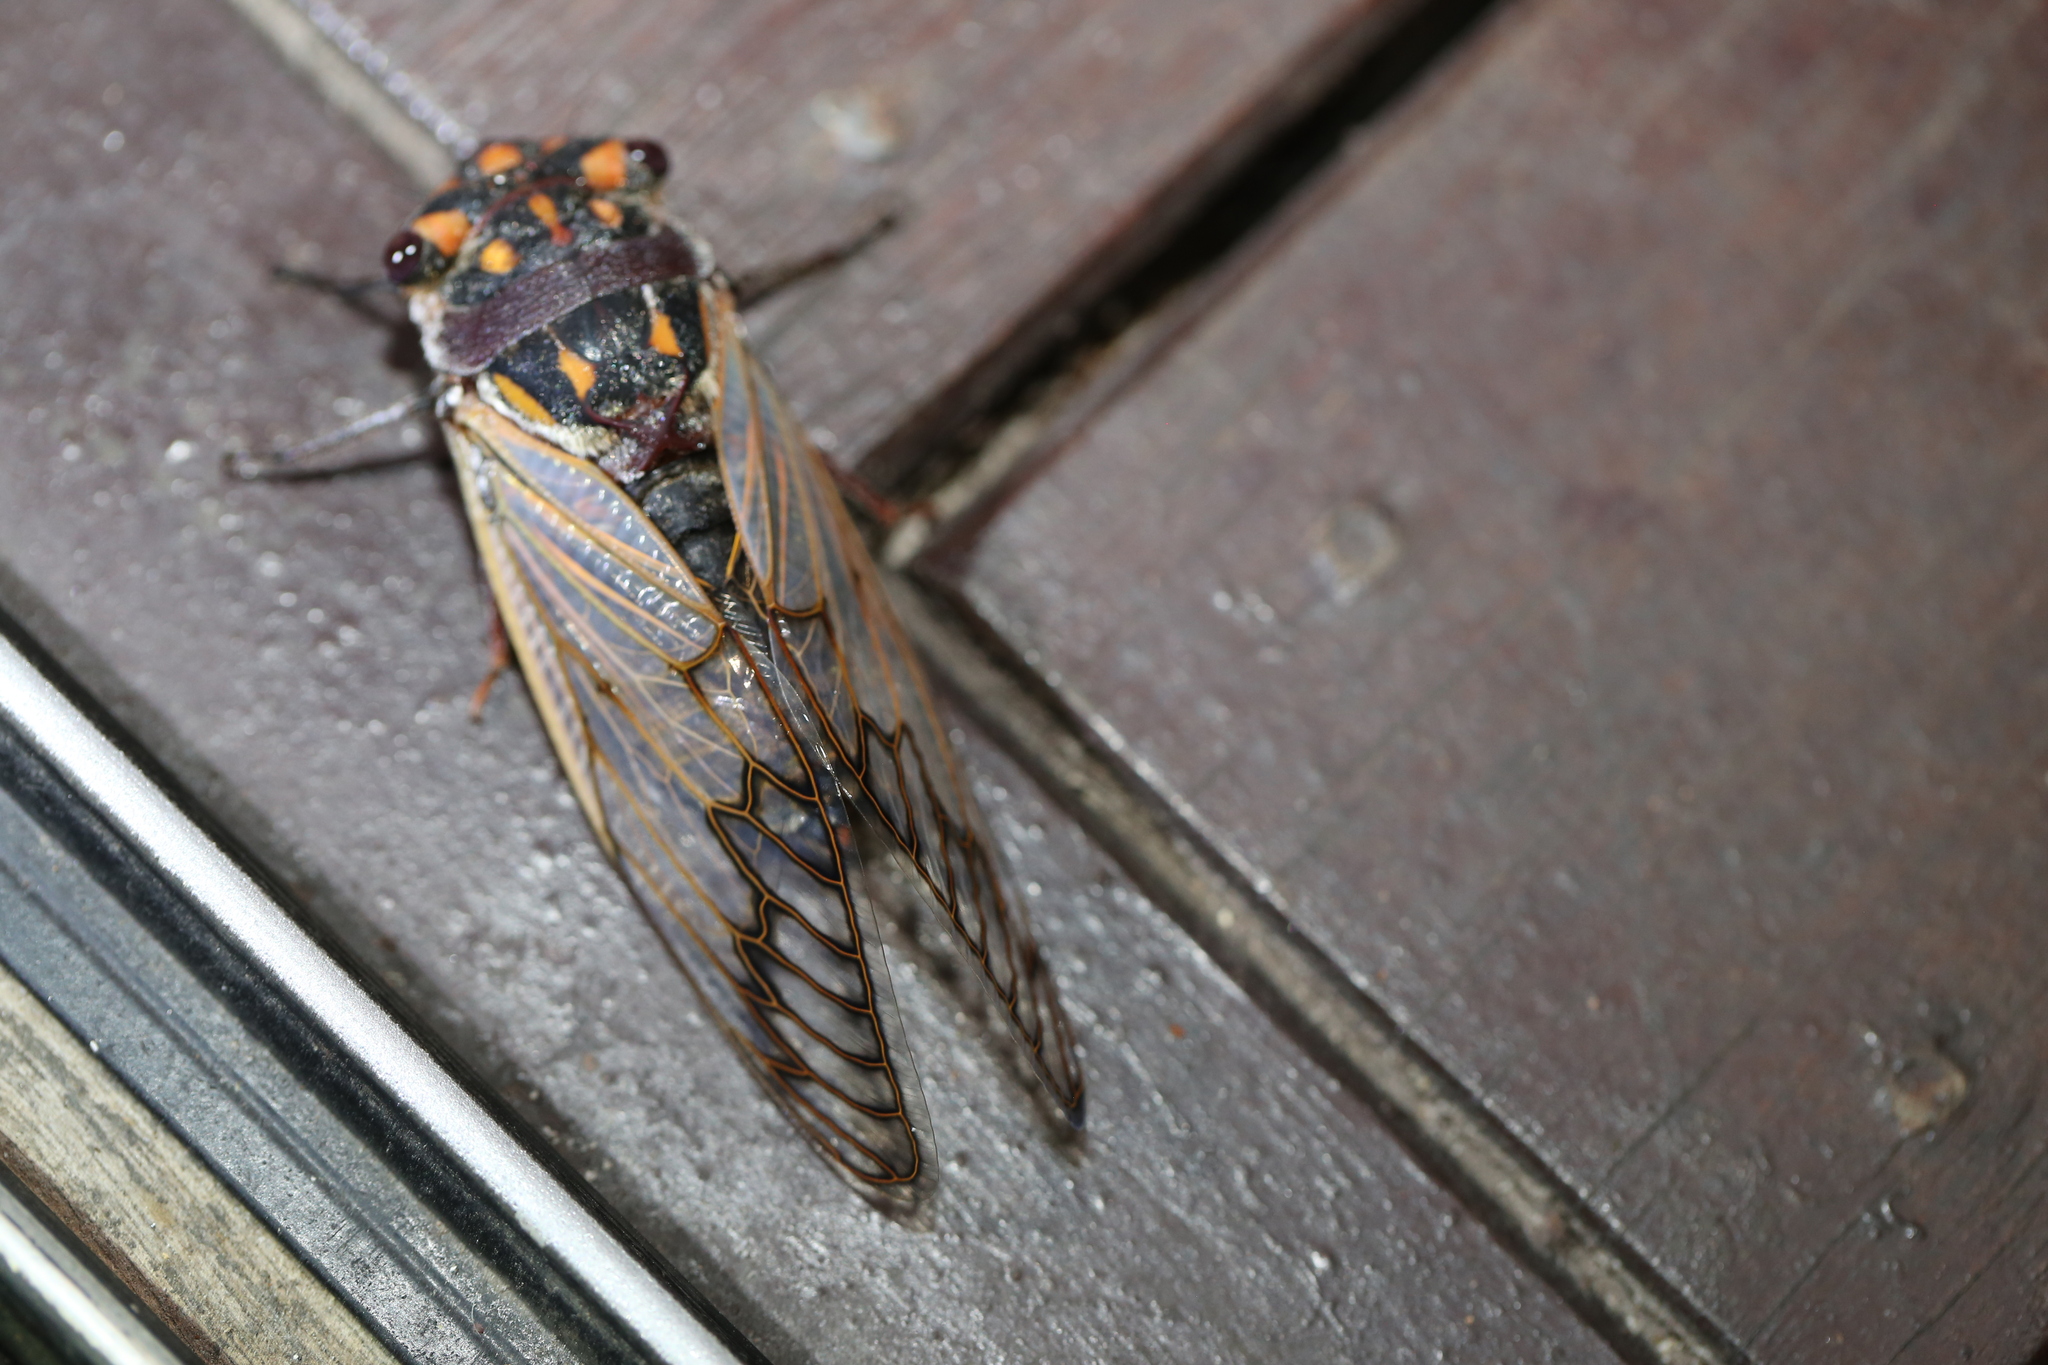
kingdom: Animalia
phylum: Arthropoda
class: Insecta
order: Hemiptera
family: Cicadidae
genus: Macrotristria
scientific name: Macrotristria angularis
